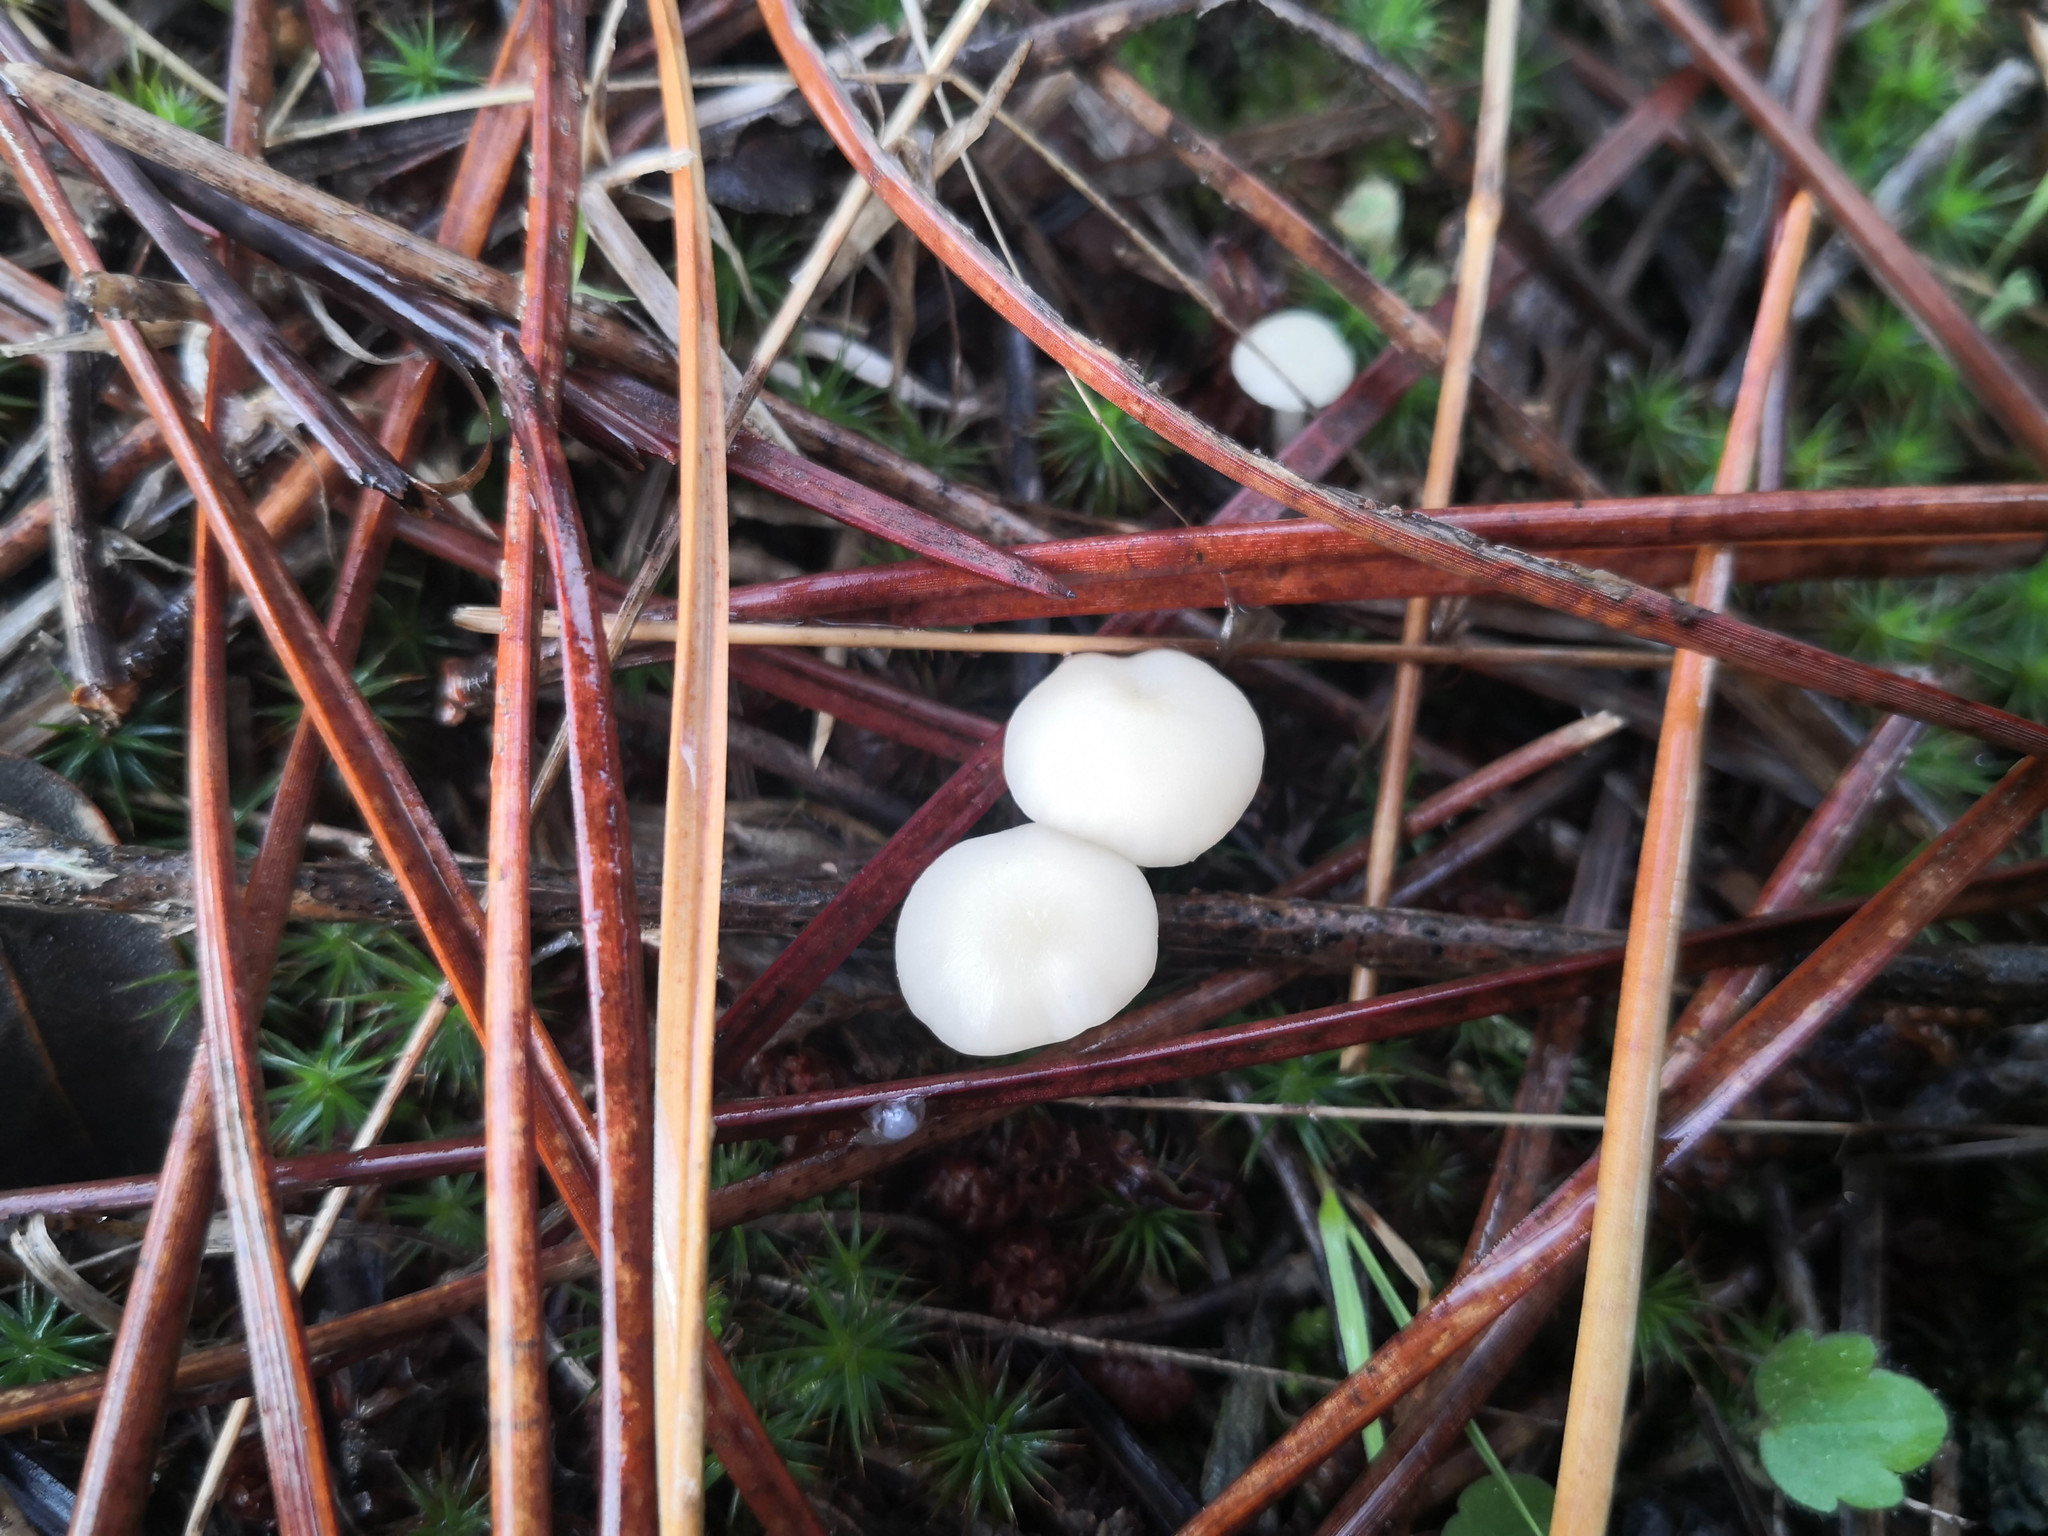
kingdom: Fungi
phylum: Basidiomycota
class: Agaricomycetes
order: Agaricales
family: Hygrophoraceae
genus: Cuphophyllus
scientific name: Cuphophyllus virgineus
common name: Snowy waxcap
